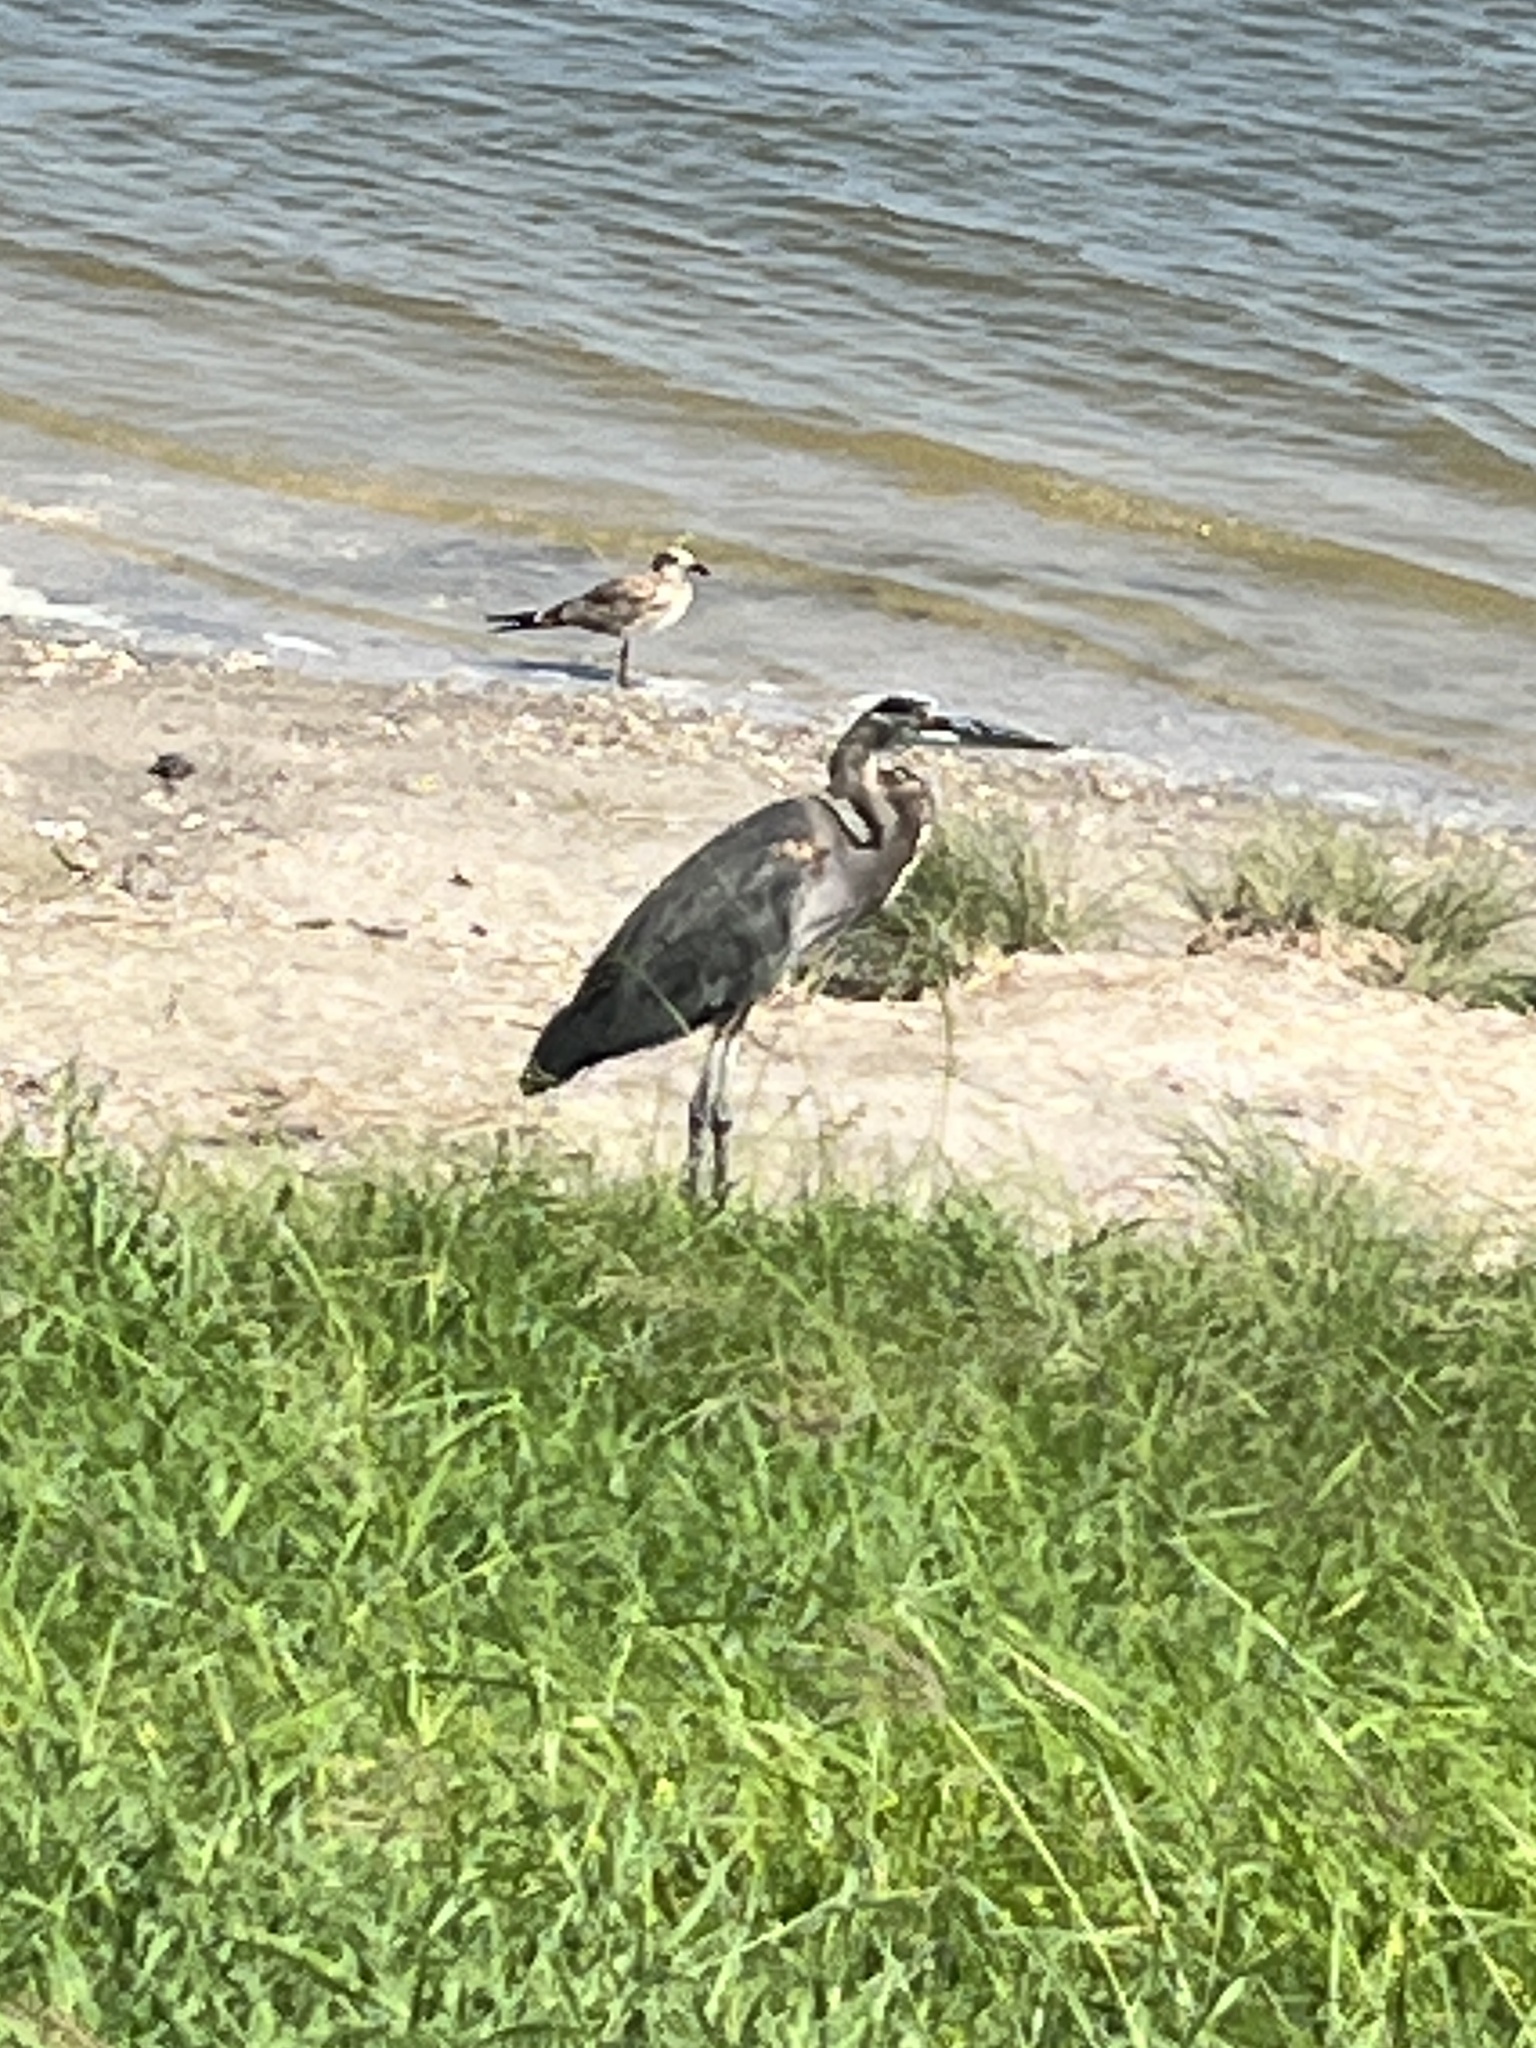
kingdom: Animalia
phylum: Chordata
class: Aves
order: Pelecaniformes
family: Ardeidae
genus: Ardea
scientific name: Ardea herodias
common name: Great blue heron
